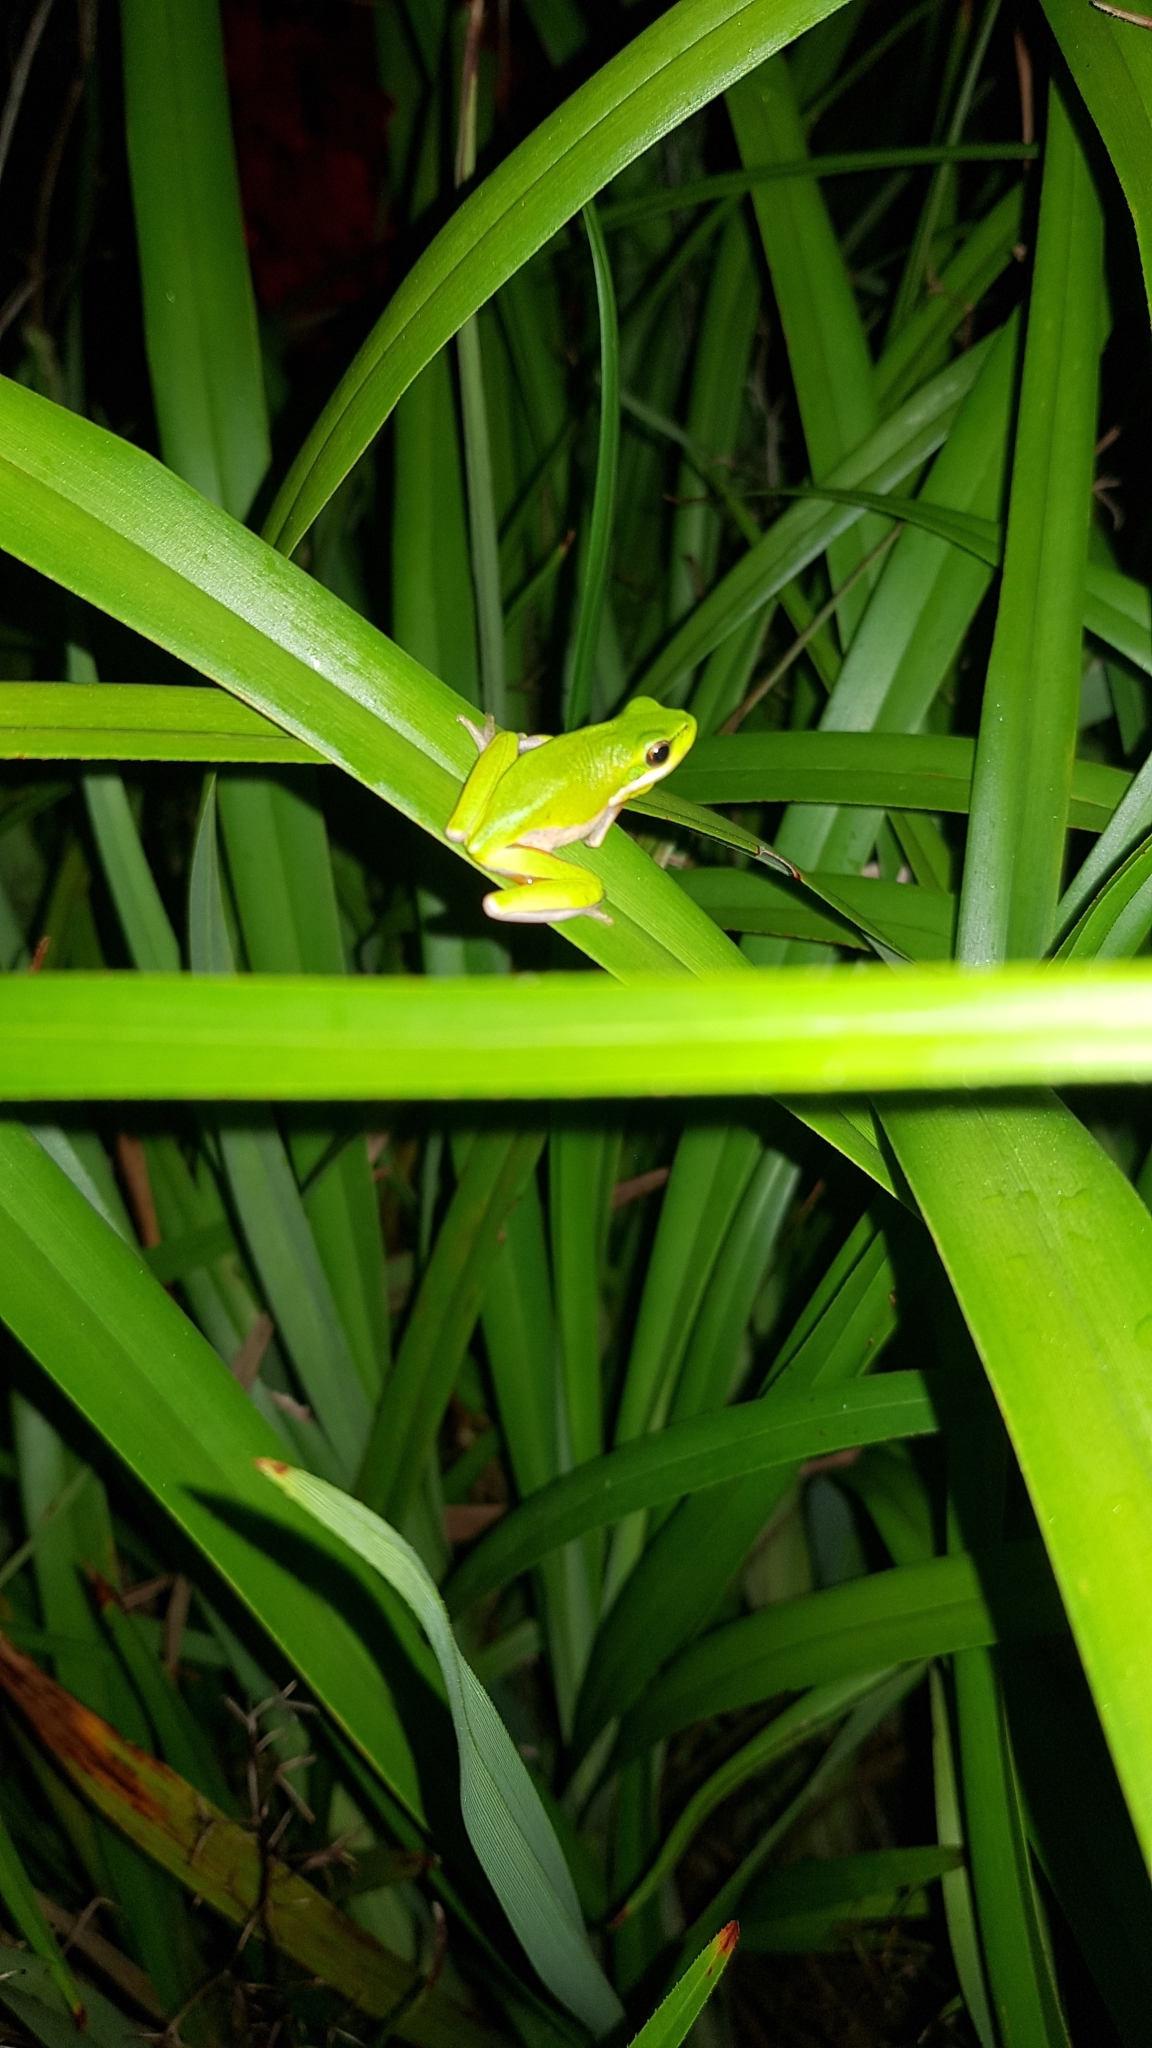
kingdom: Animalia
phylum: Chordata
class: Amphibia
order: Anura
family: Pelodryadidae
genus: Litoria
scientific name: Litoria fallax
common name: Eastern dwarf treefrog
